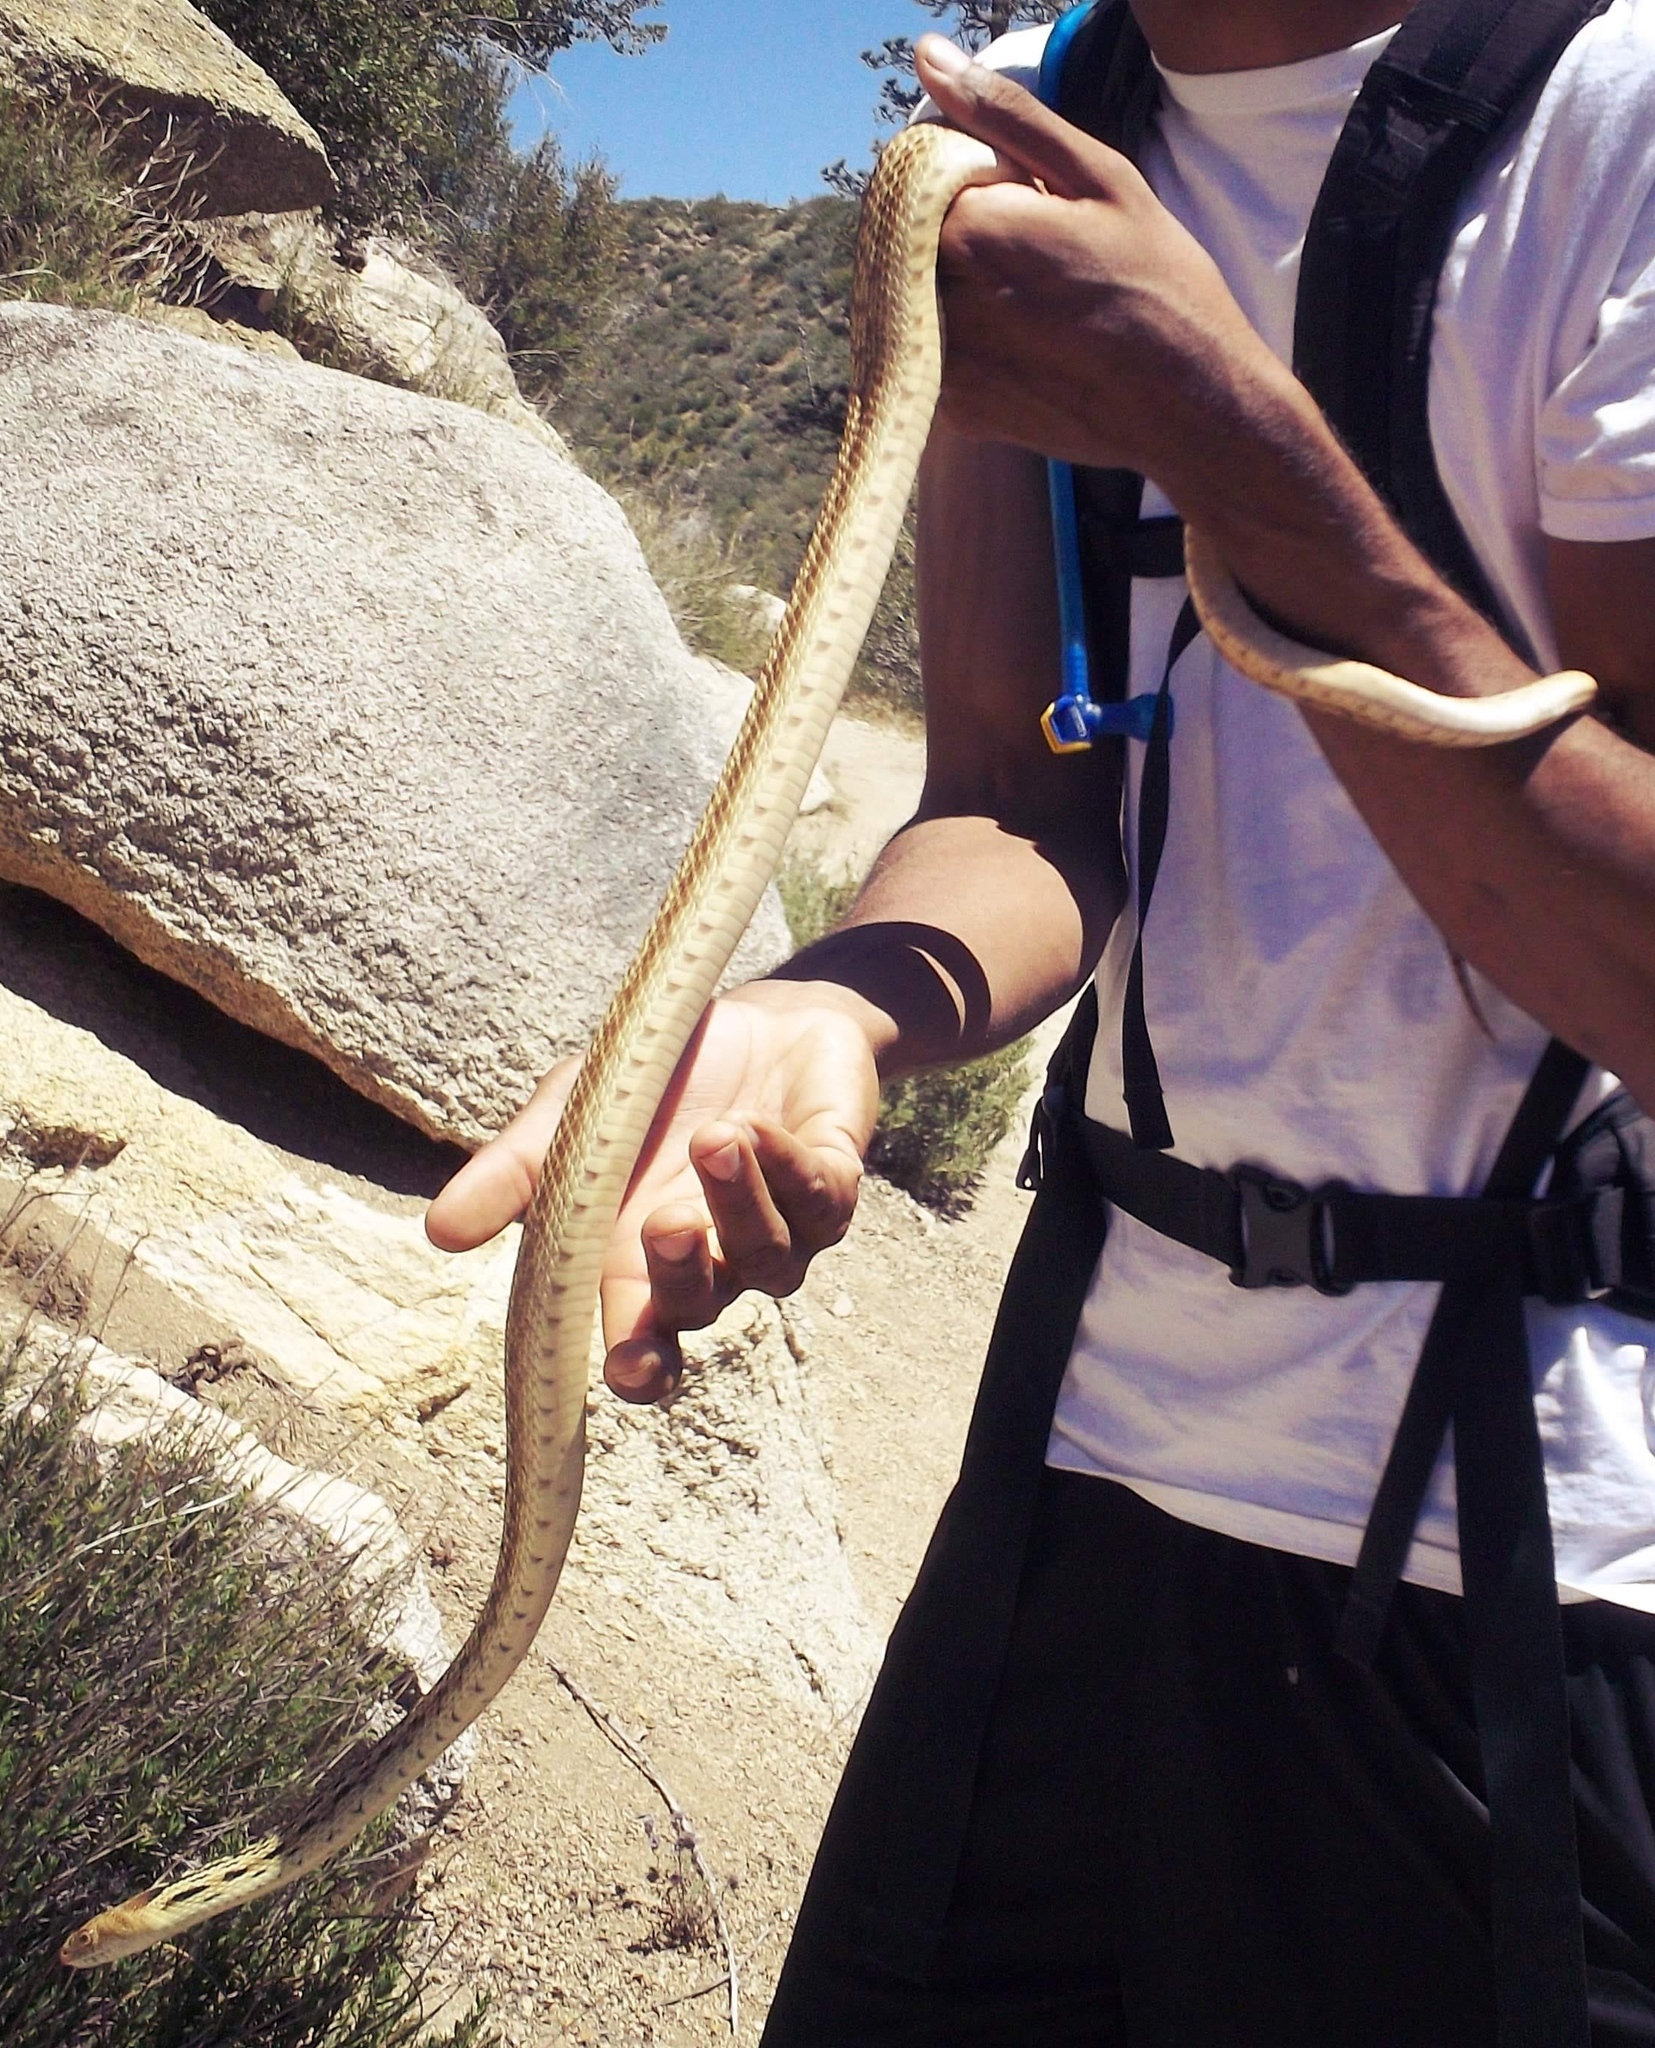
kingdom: Animalia
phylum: Chordata
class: Squamata
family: Colubridae
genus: Pituophis
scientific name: Pituophis catenifer
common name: Gopher snake
